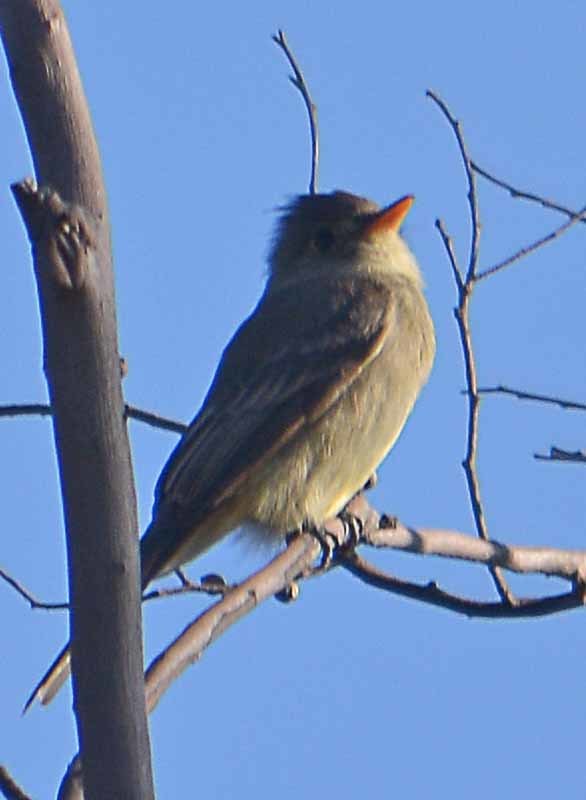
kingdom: Animalia
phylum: Chordata
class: Aves
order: Passeriformes
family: Tyrannidae
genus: Contopus
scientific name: Contopus pertinax
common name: Greater pewee
